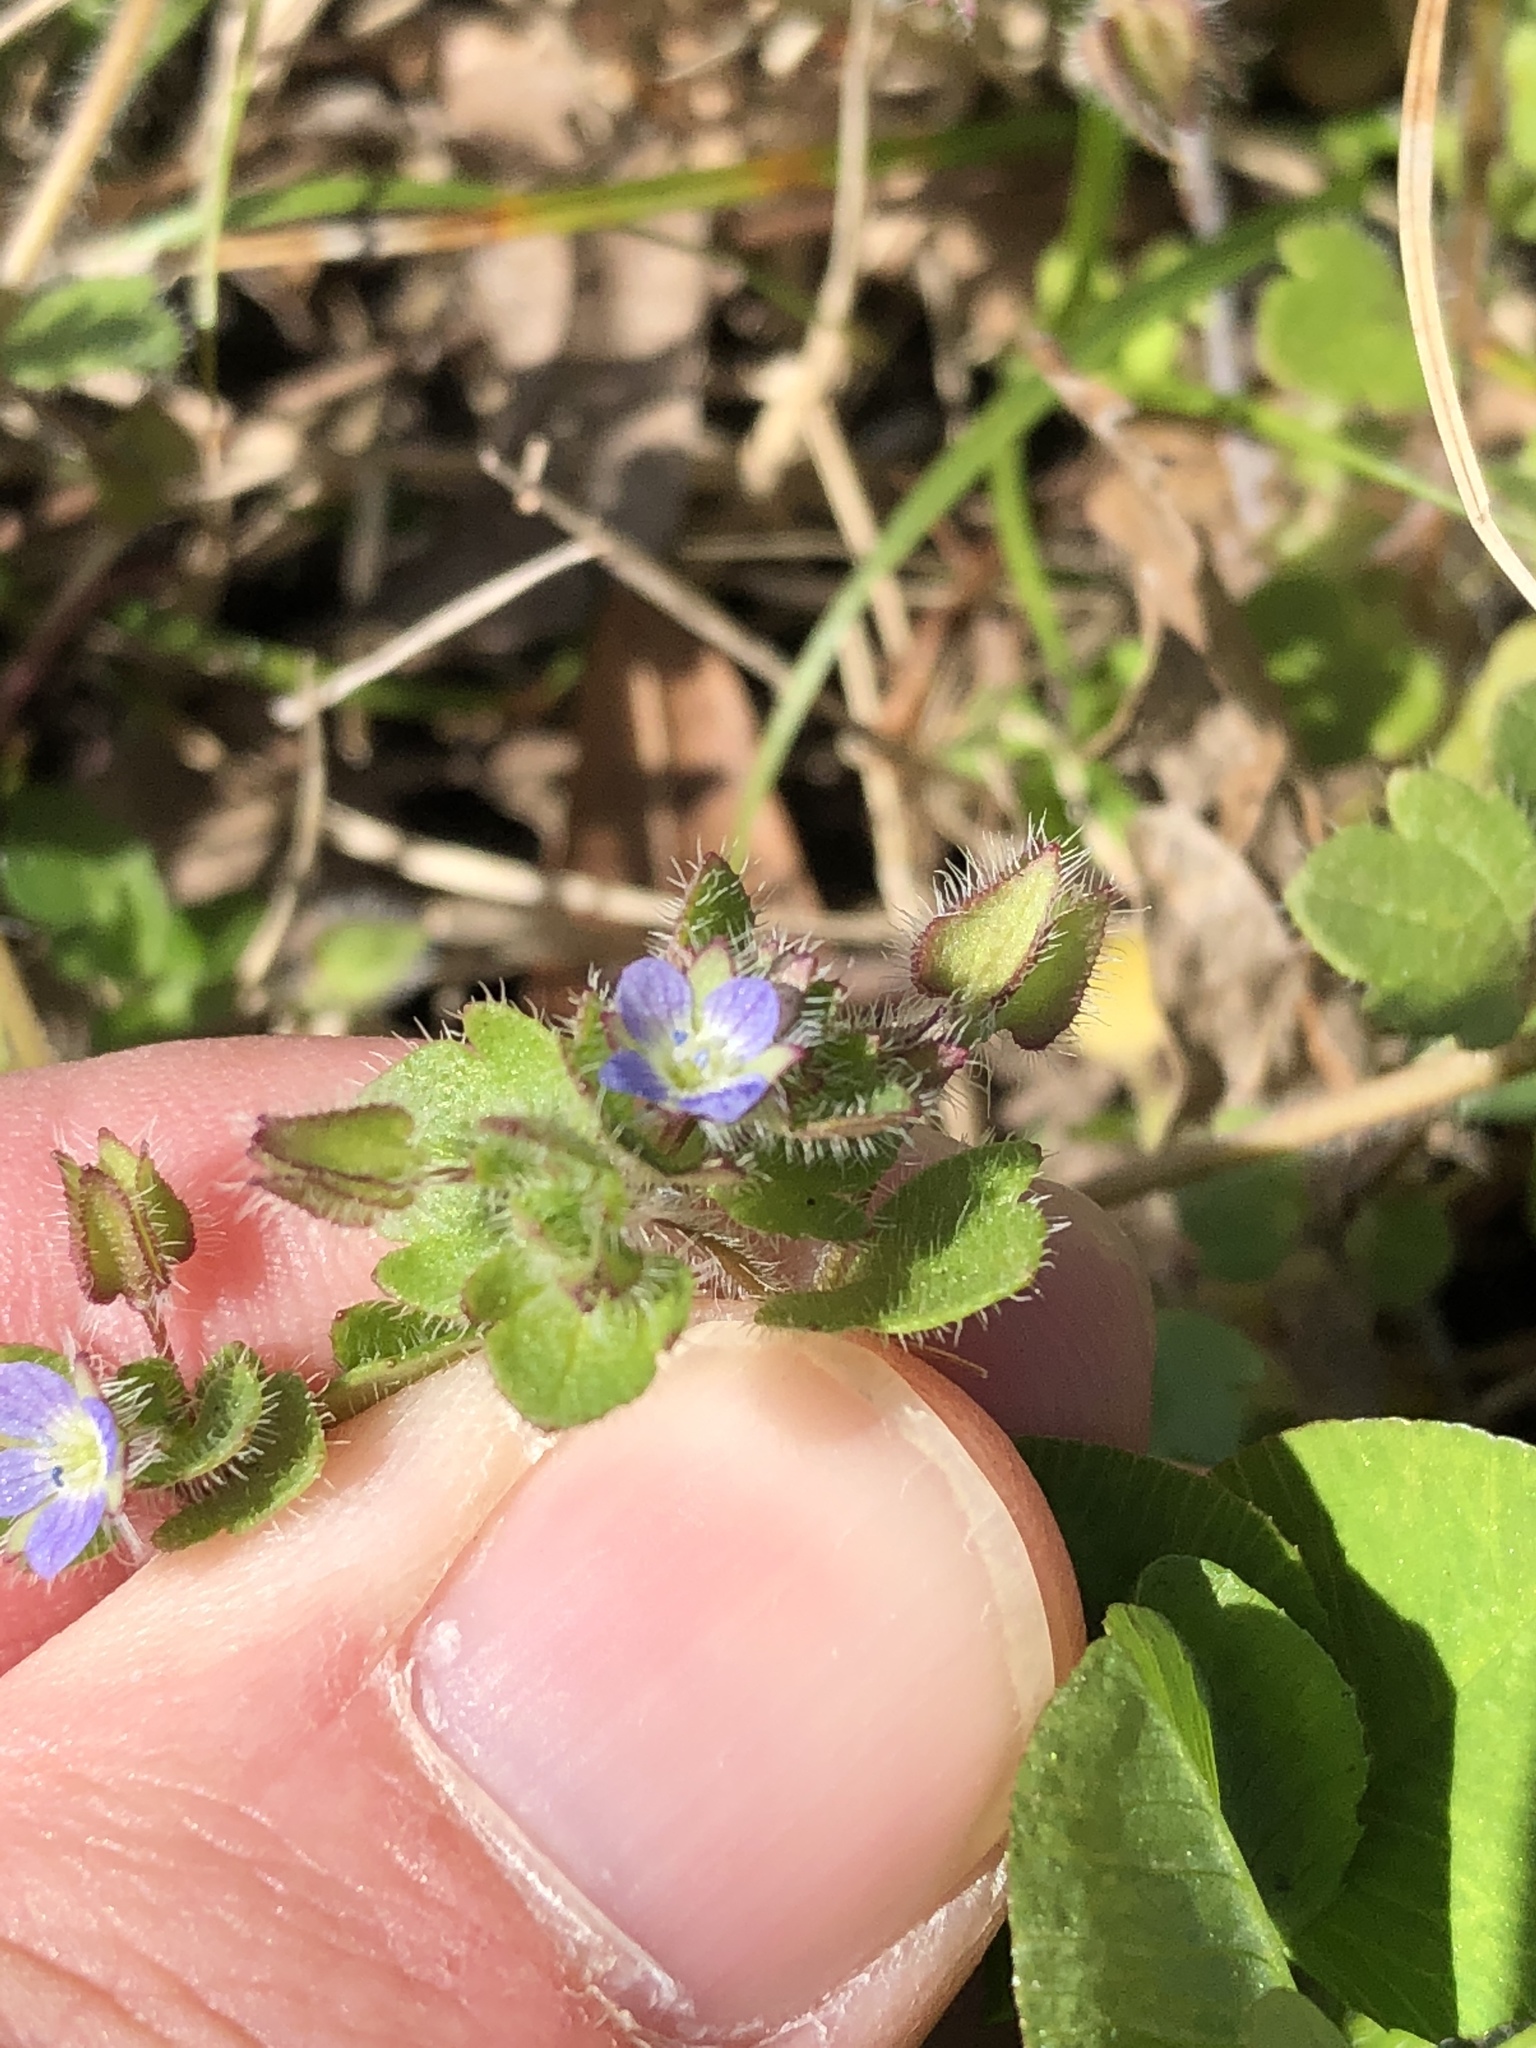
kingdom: Plantae
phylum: Tracheophyta
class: Magnoliopsida
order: Lamiales
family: Plantaginaceae
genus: Veronica
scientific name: Veronica hederifolia
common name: Ivy-leaved speedwell
